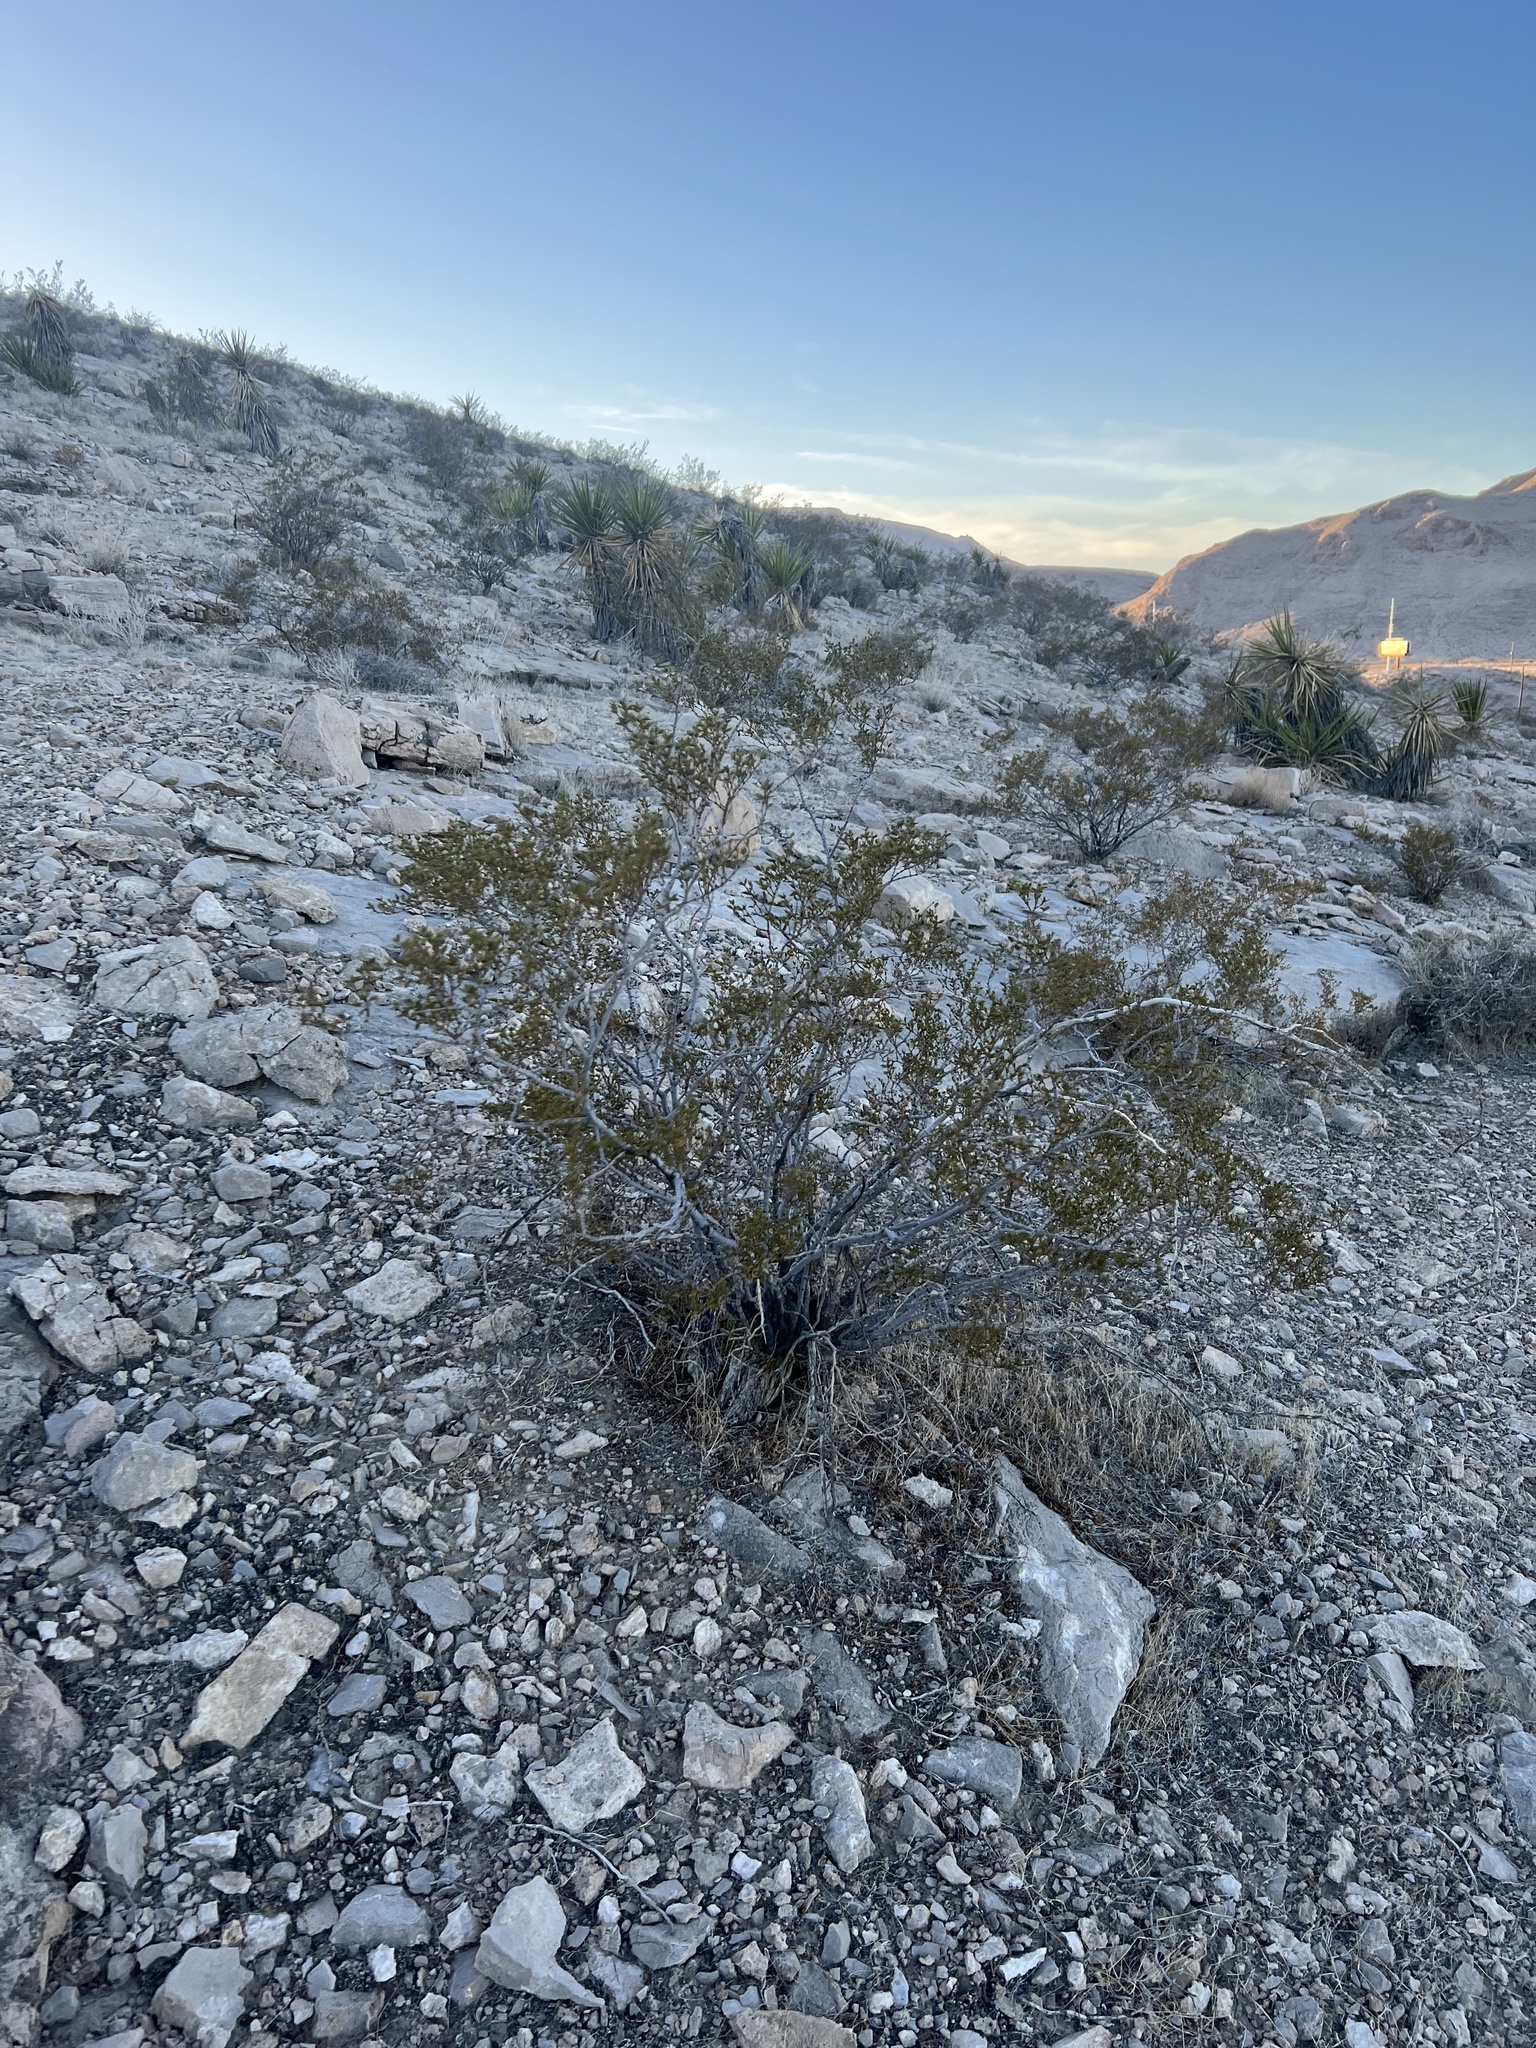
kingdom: Plantae
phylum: Tracheophyta
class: Magnoliopsida
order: Zygophyllales
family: Zygophyllaceae
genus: Larrea
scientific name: Larrea tridentata
